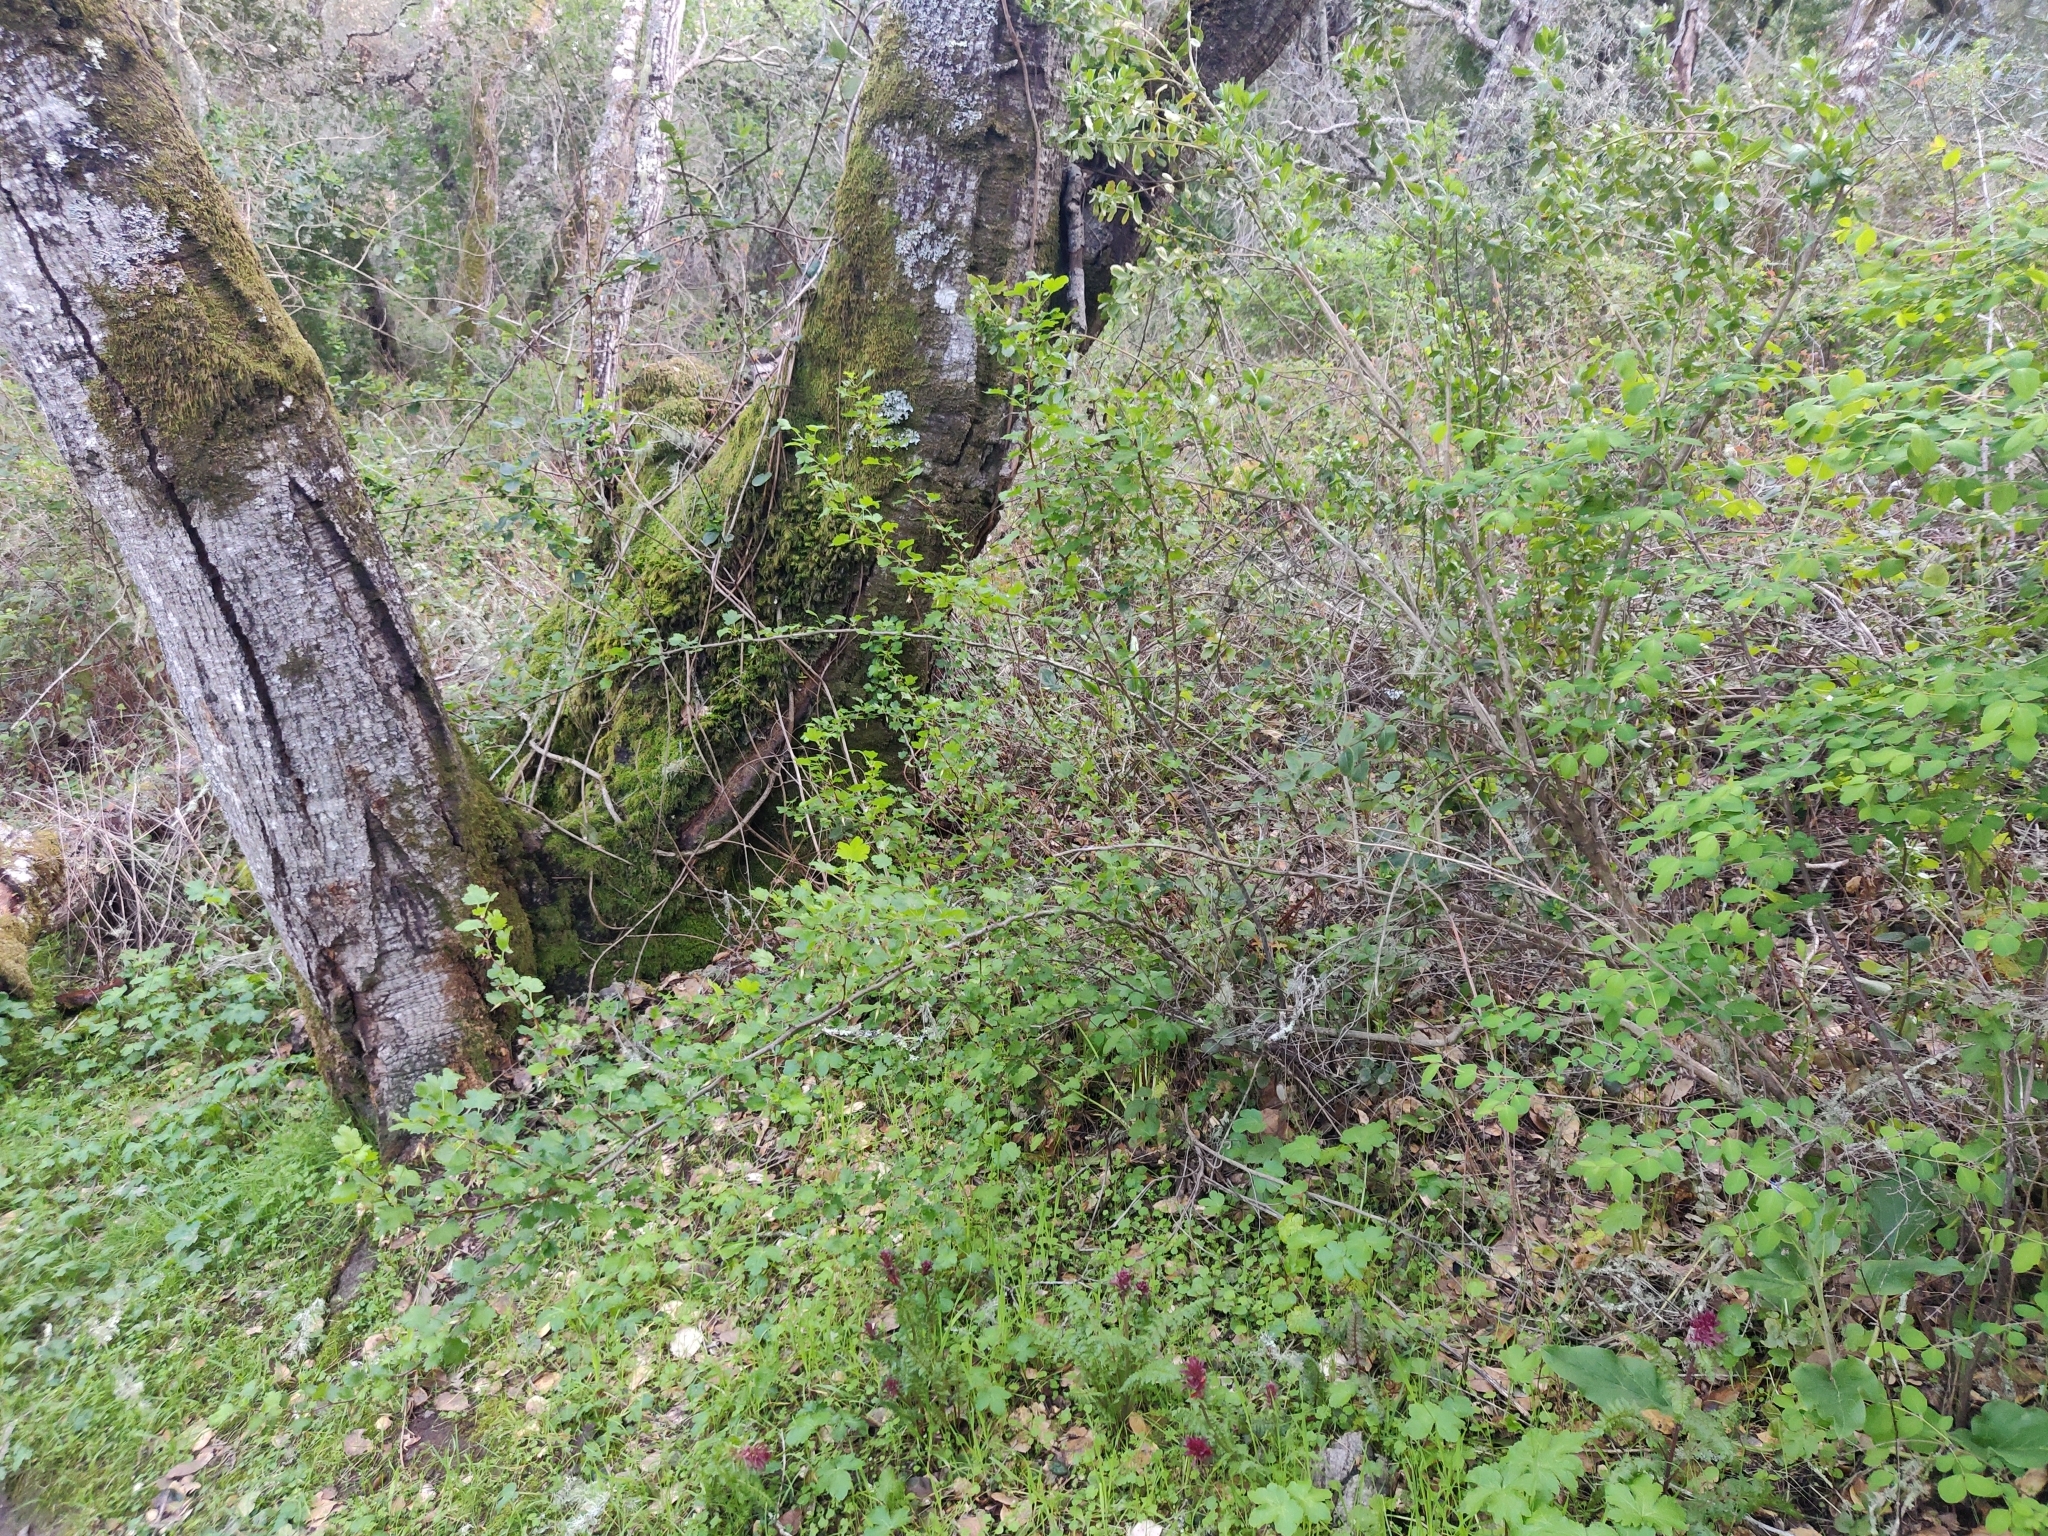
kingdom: Plantae
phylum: Tracheophyta
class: Magnoliopsida
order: Saxifragales
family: Grossulariaceae
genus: Ribes
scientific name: Ribes californicum
